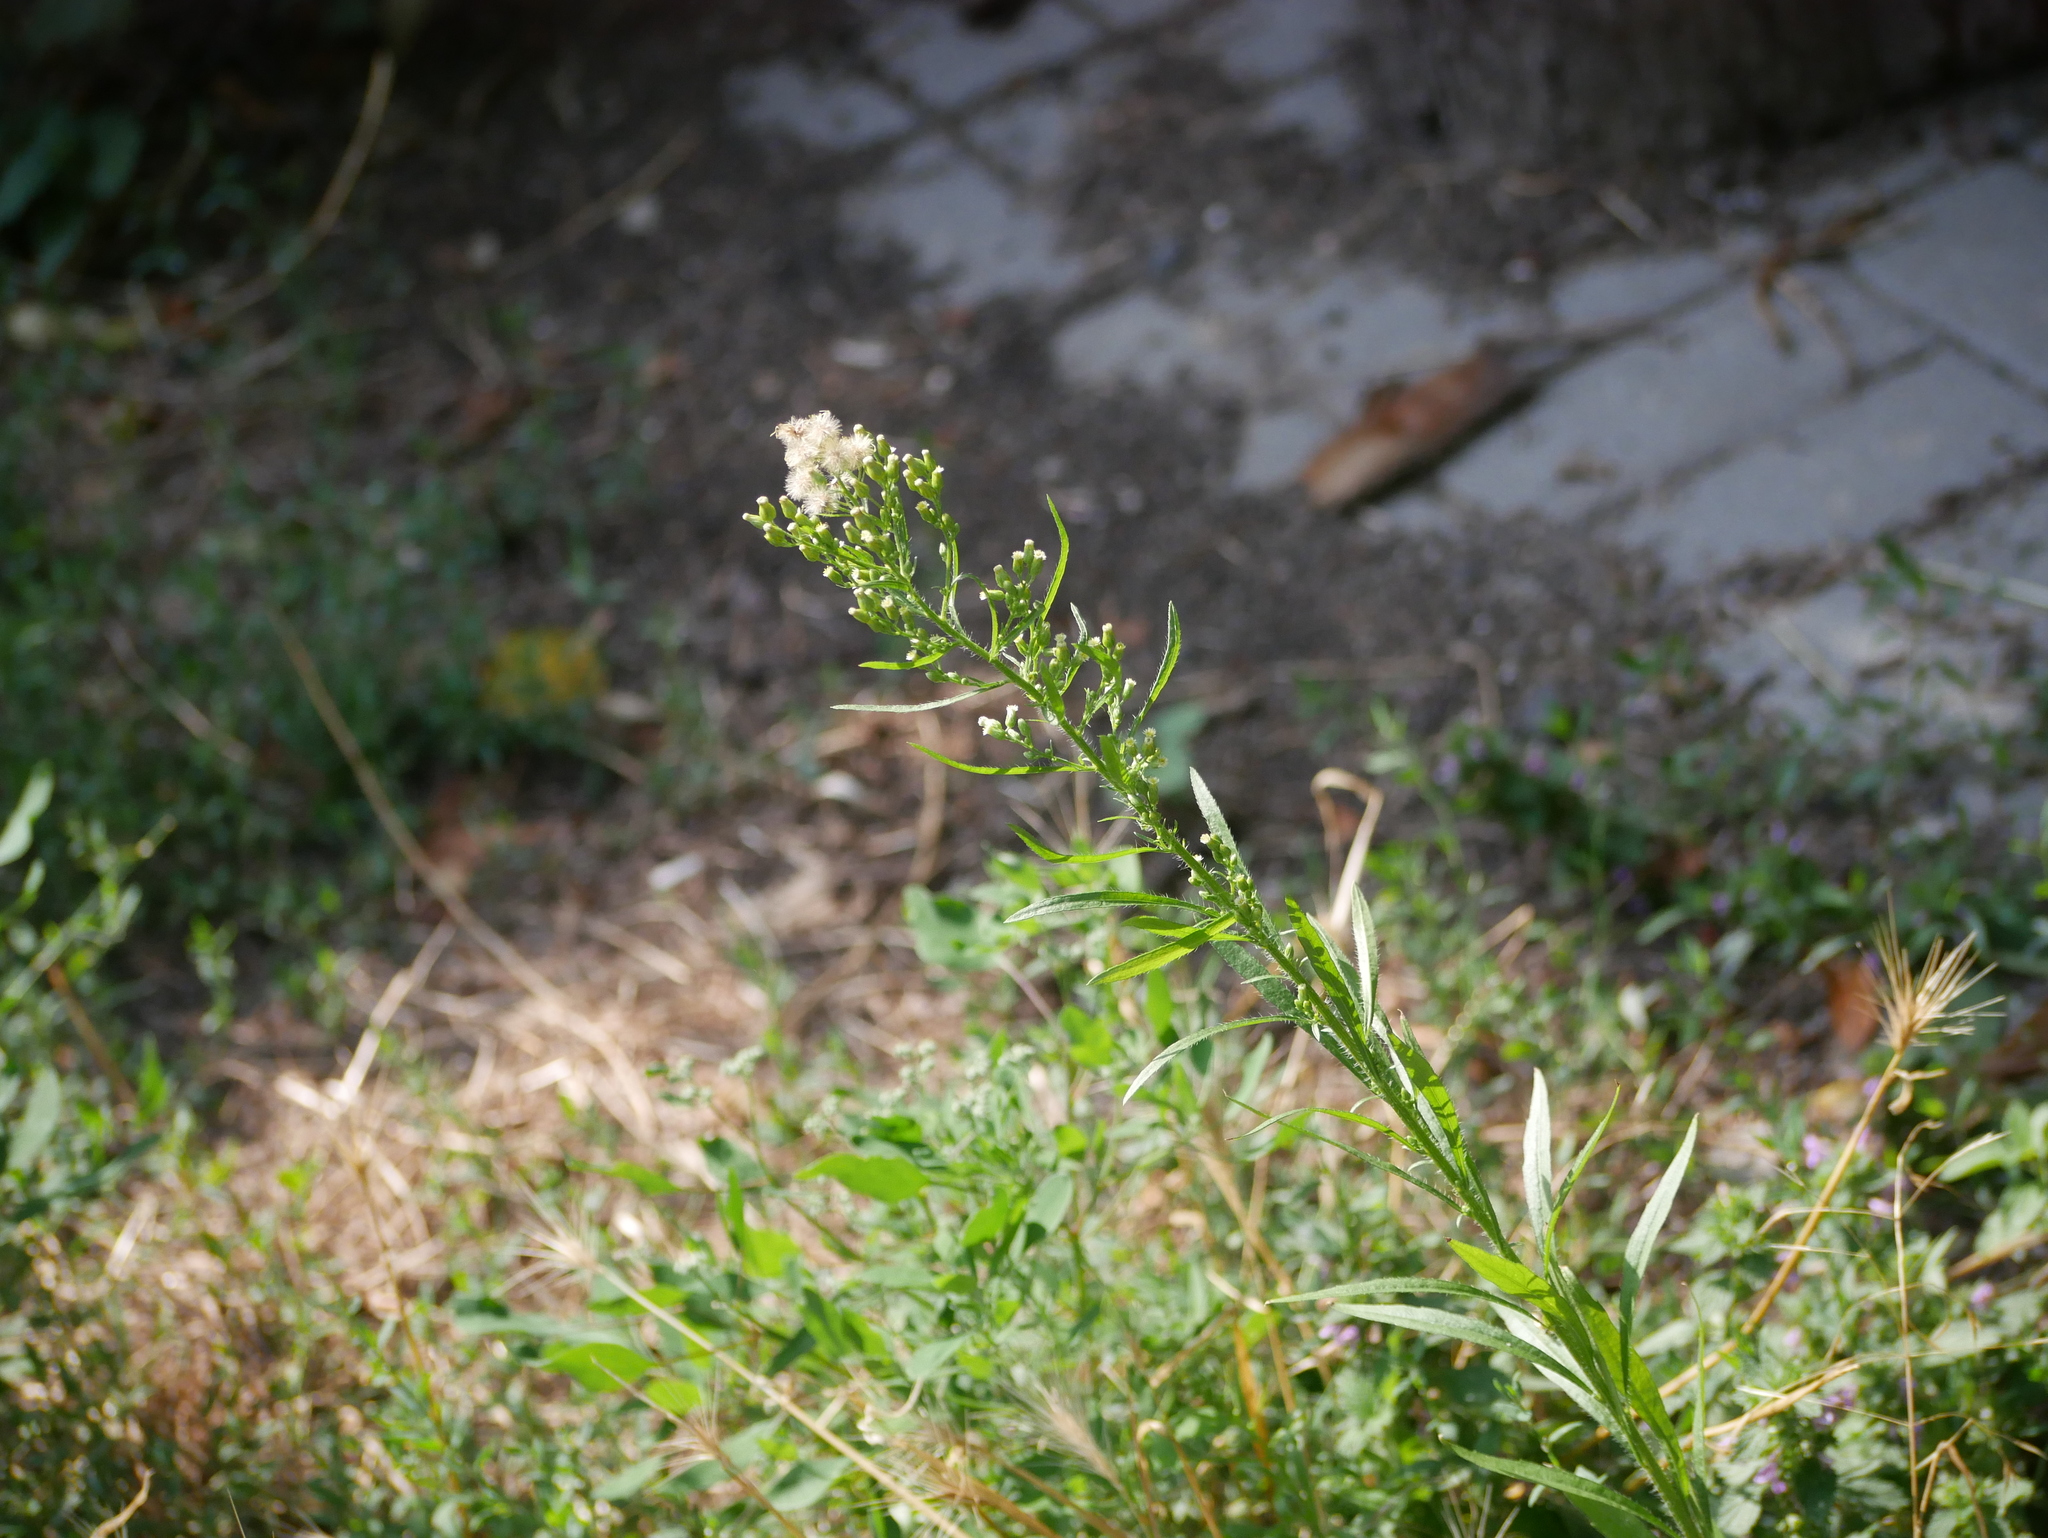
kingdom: Plantae
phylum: Tracheophyta
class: Magnoliopsida
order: Asterales
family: Asteraceae
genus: Erigeron
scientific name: Erigeron canadensis
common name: Canadian fleabane
